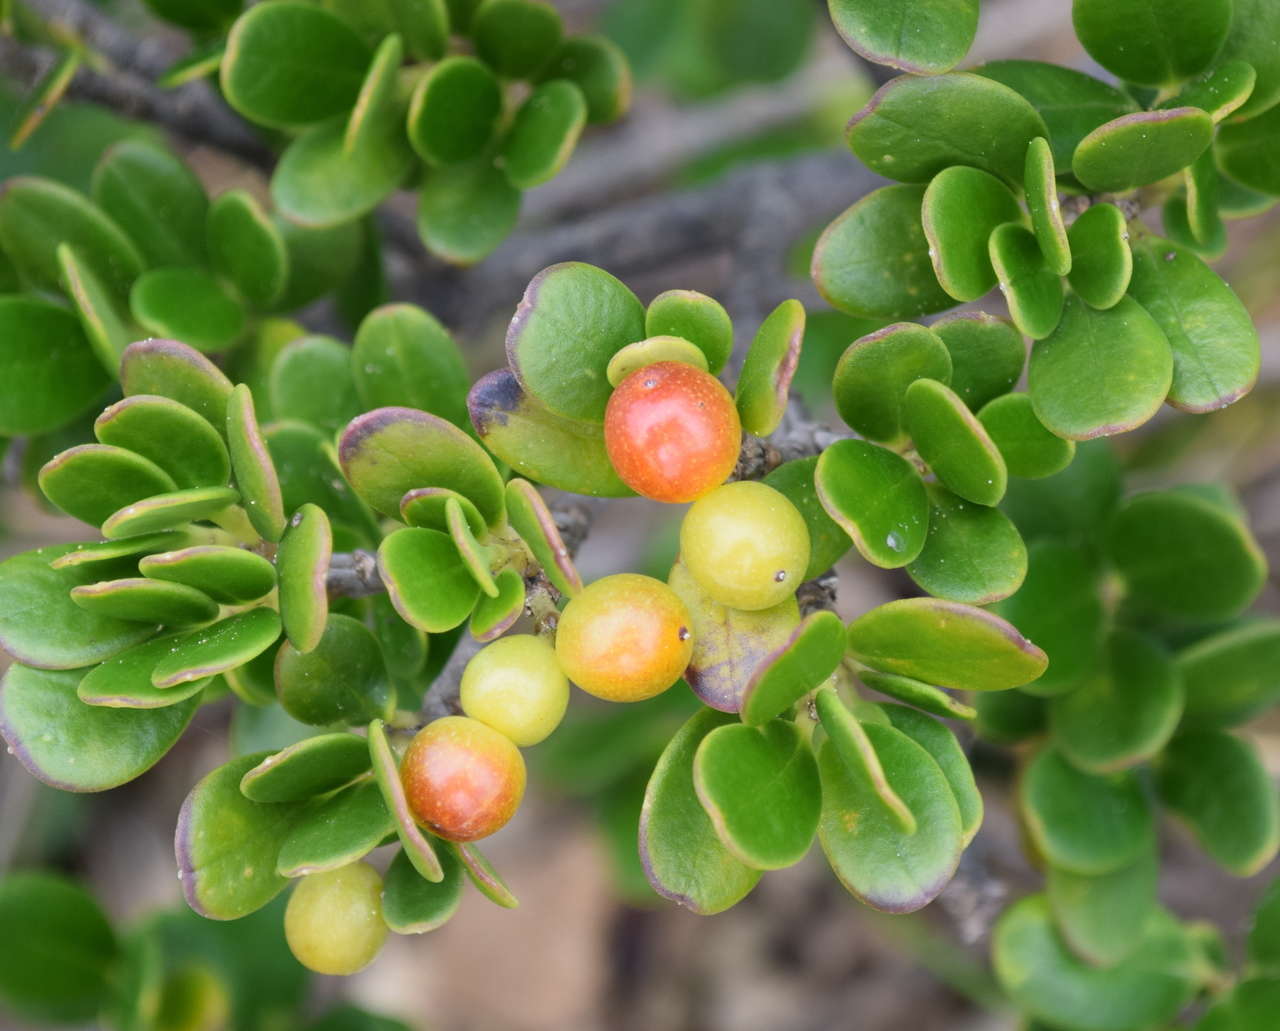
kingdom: Plantae
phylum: Tracheophyta
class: Magnoliopsida
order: Gentianales
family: Apocynaceae
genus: Alyxia
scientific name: Alyxia buxifolia
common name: Dysentery-bush
